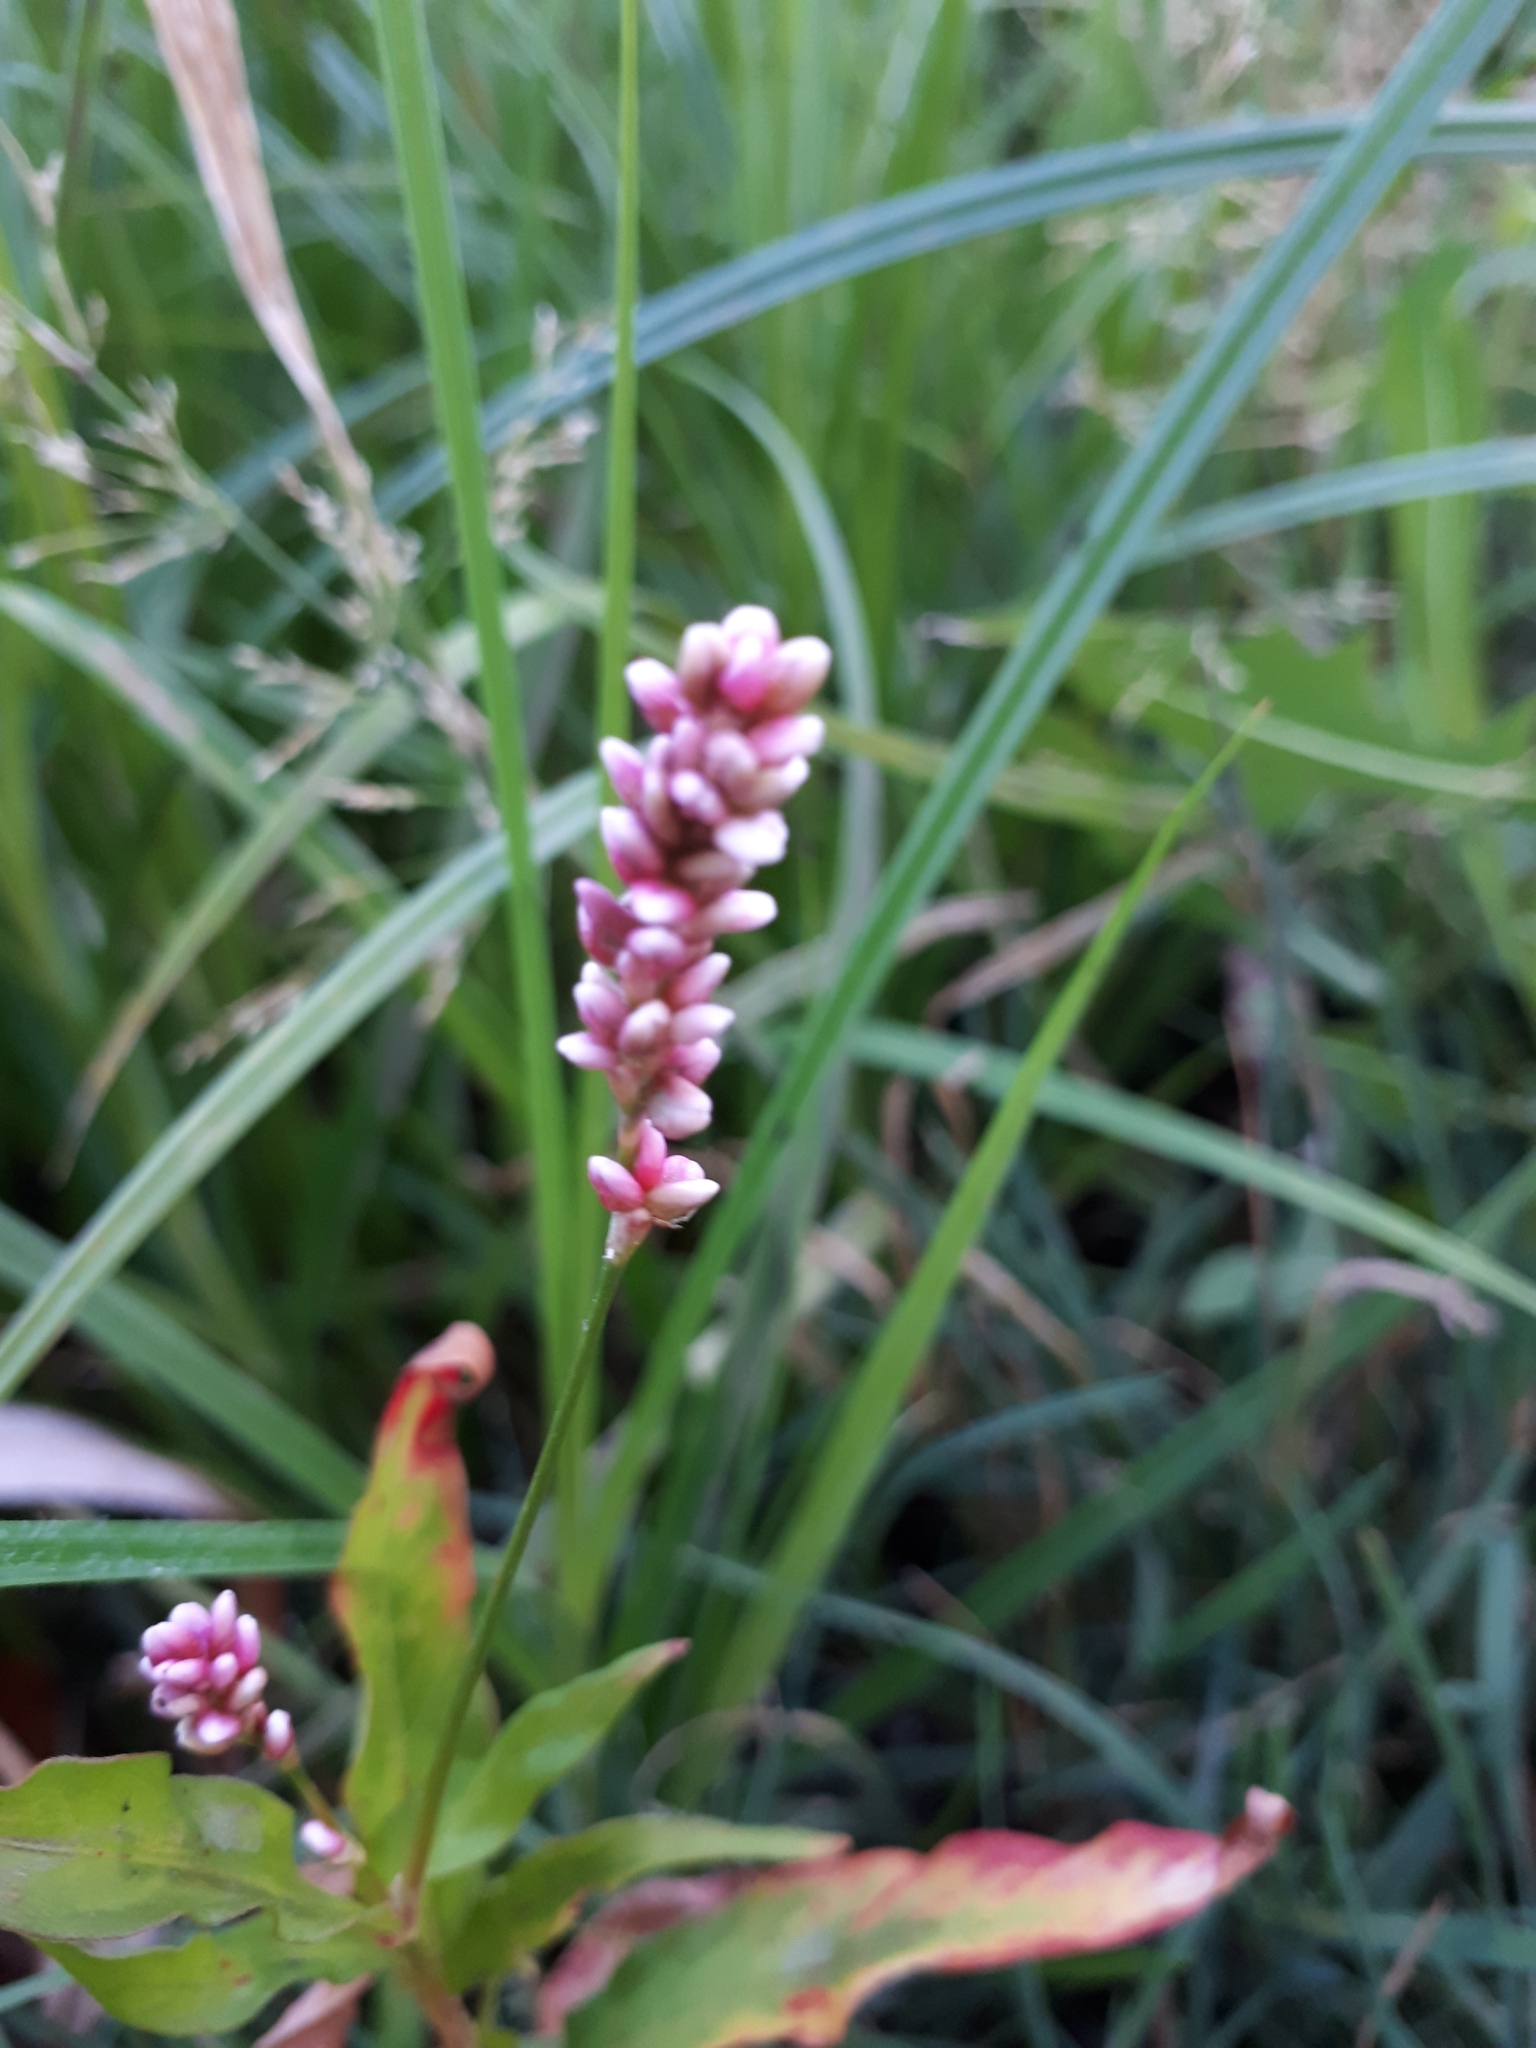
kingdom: Plantae
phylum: Tracheophyta
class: Magnoliopsida
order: Caryophyllales
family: Polygonaceae
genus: Persicaria
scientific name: Persicaria maculosa
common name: Redshank
